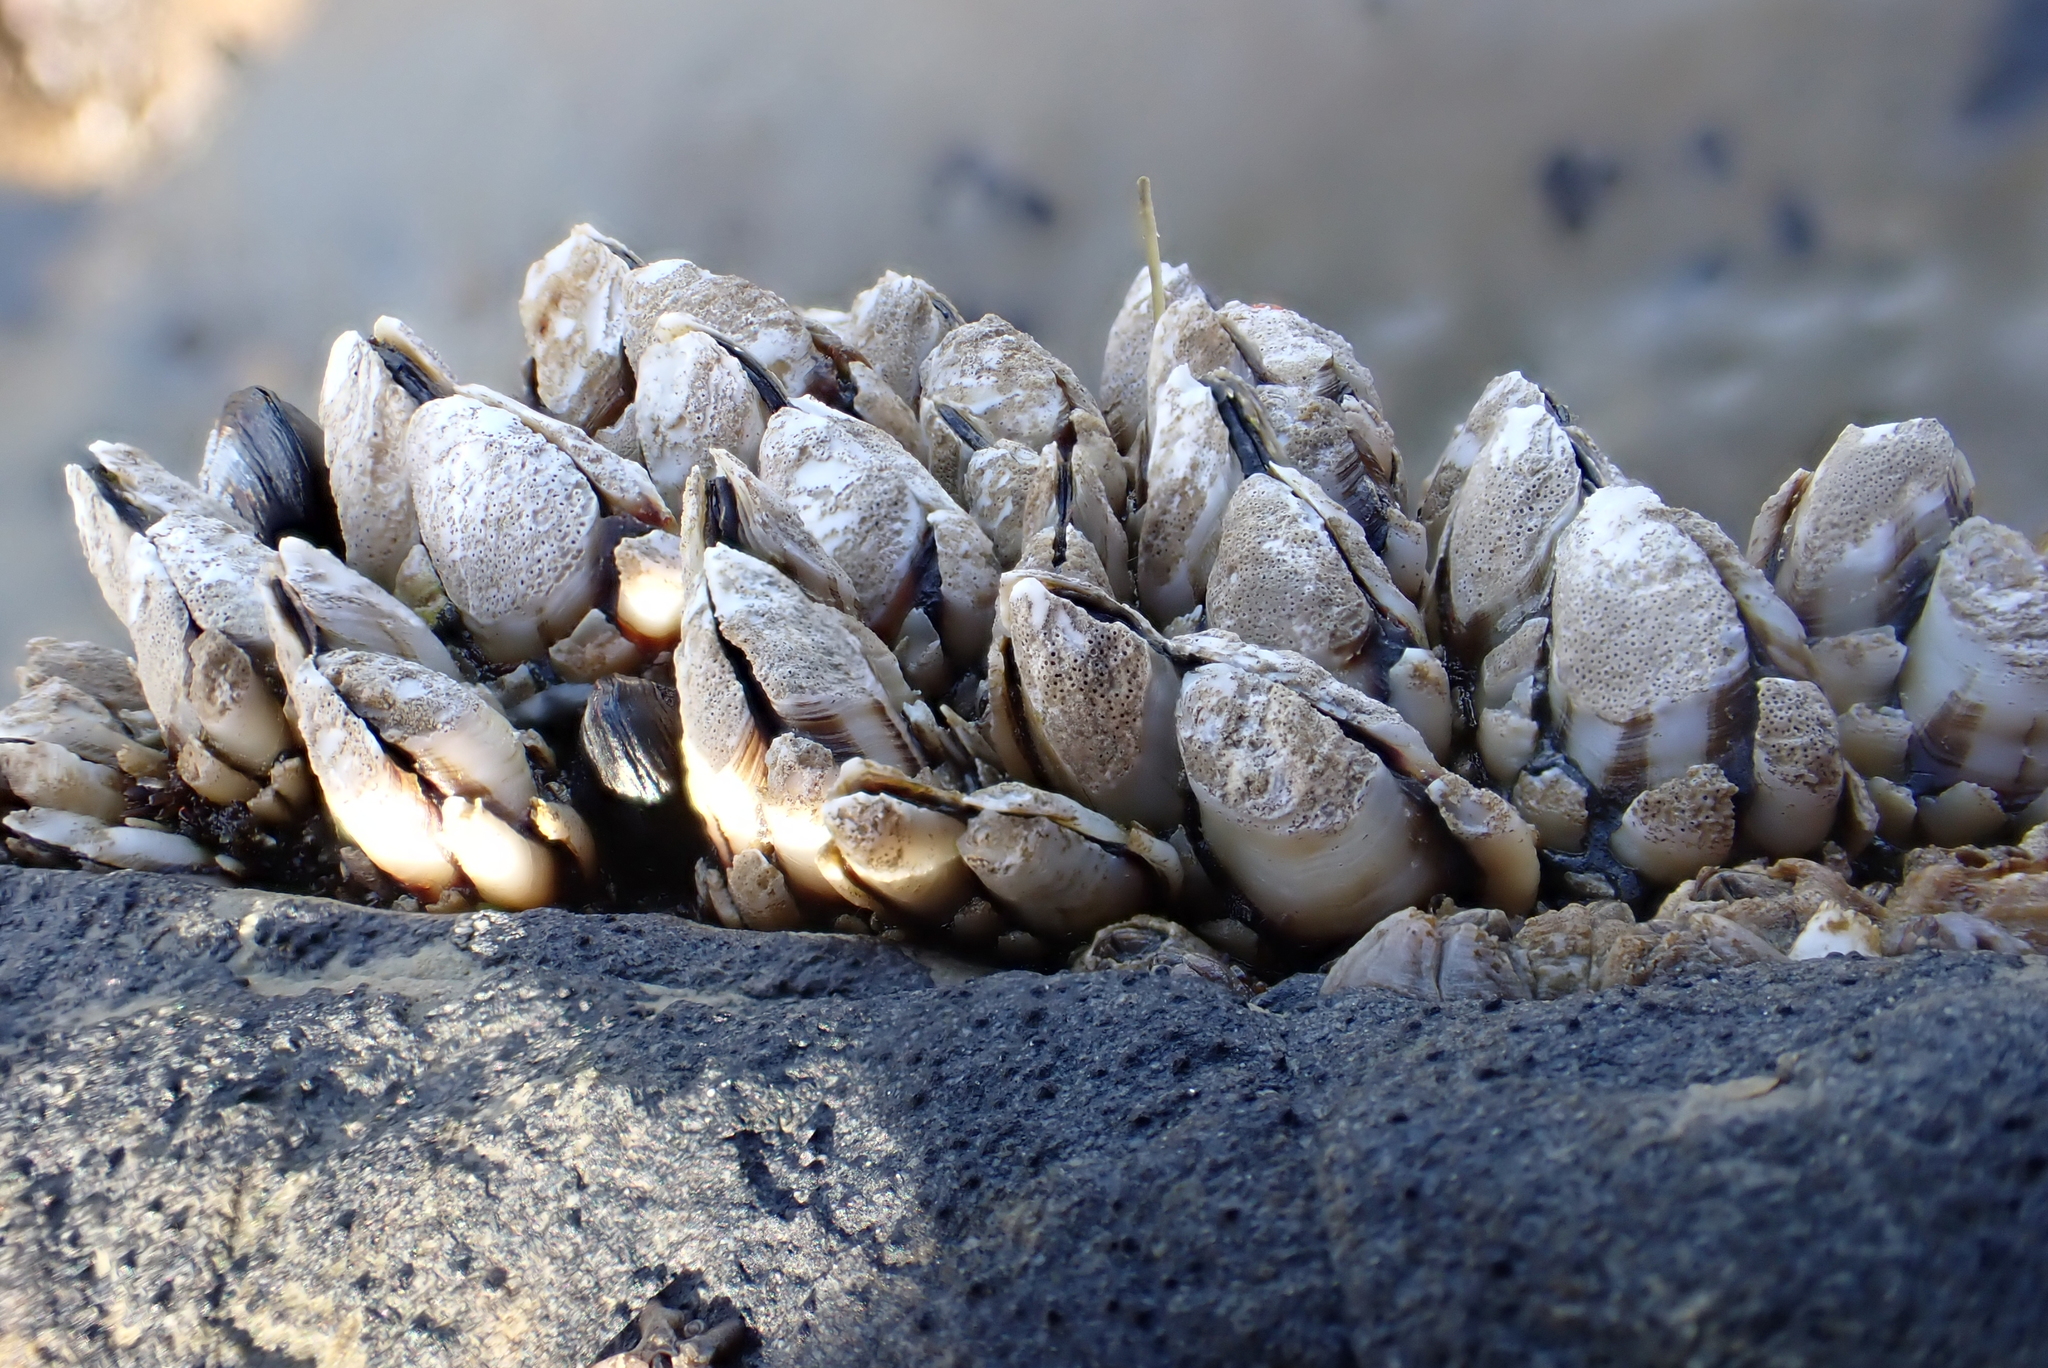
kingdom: Animalia
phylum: Arthropoda
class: Maxillopoda
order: Pedunculata
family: Pollicipedidae
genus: Pollicipes
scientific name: Pollicipes polymerus
